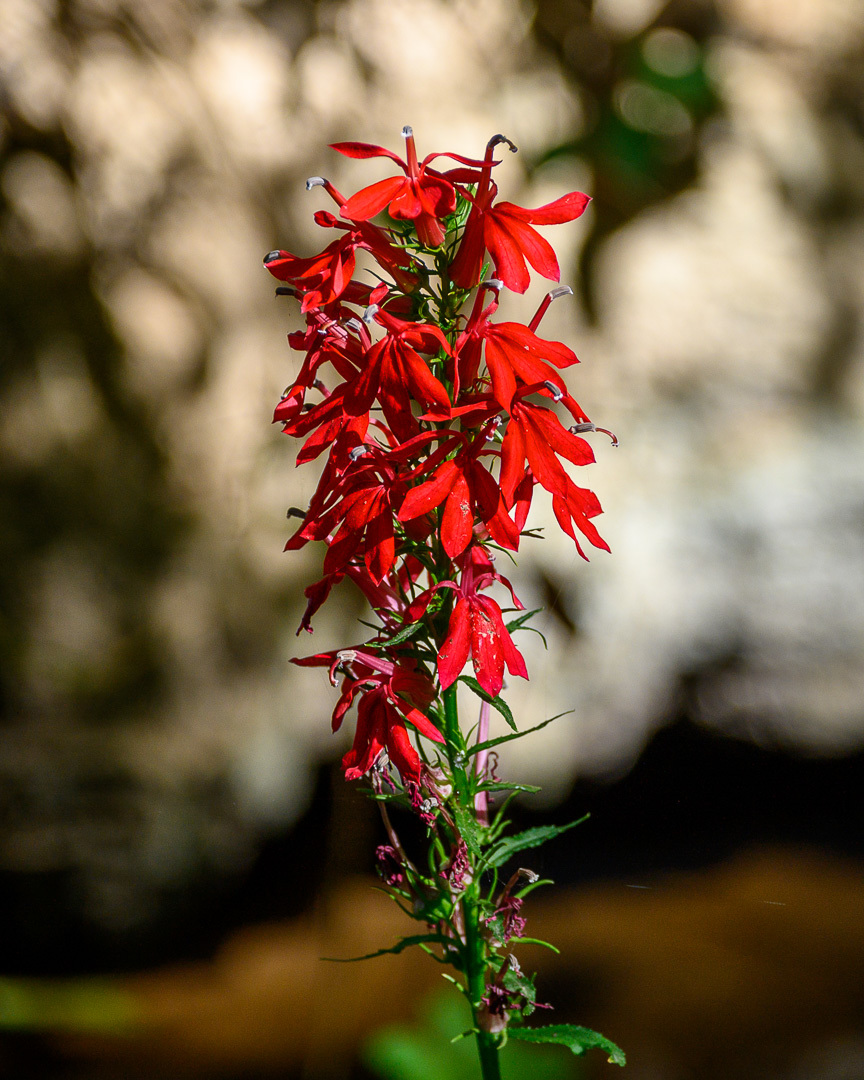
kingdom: Plantae
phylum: Tracheophyta
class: Magnoliopsida
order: Asterales
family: Campanulaceae
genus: Lobelia
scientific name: Lobelia cardinalis
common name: Cardinal flower
